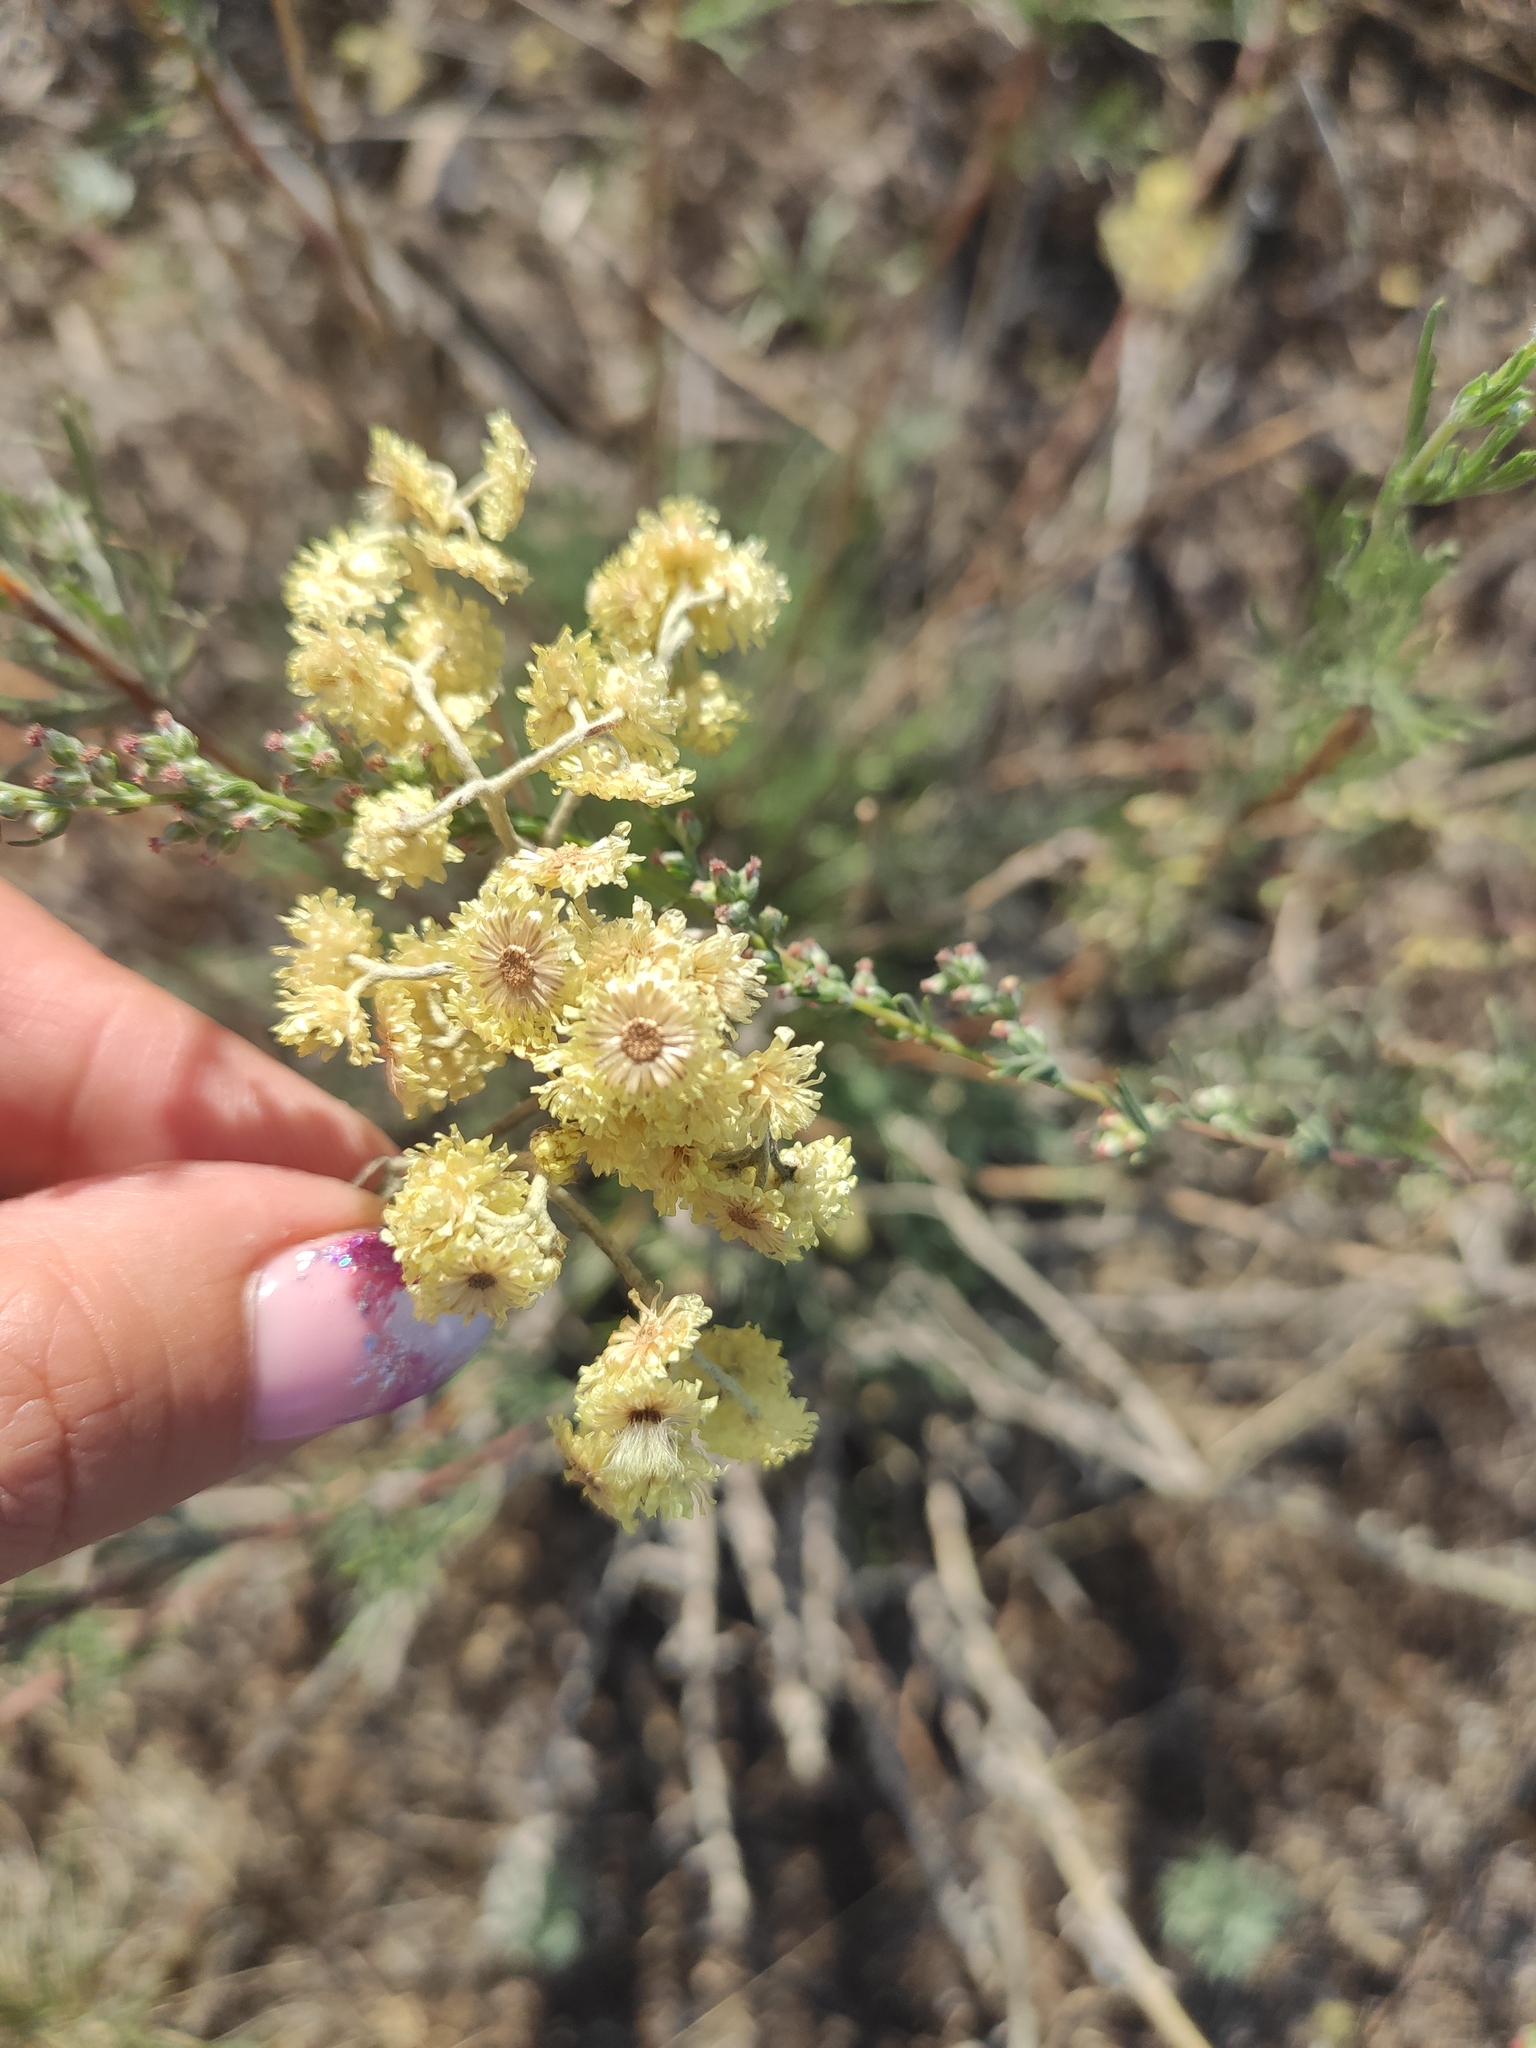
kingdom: Plantae
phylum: Tracheophyta
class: Magnoliopsida
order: Asterales
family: Asteraceae
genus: Helichrysum
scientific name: Helichrysum arenarium
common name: Strawflower
